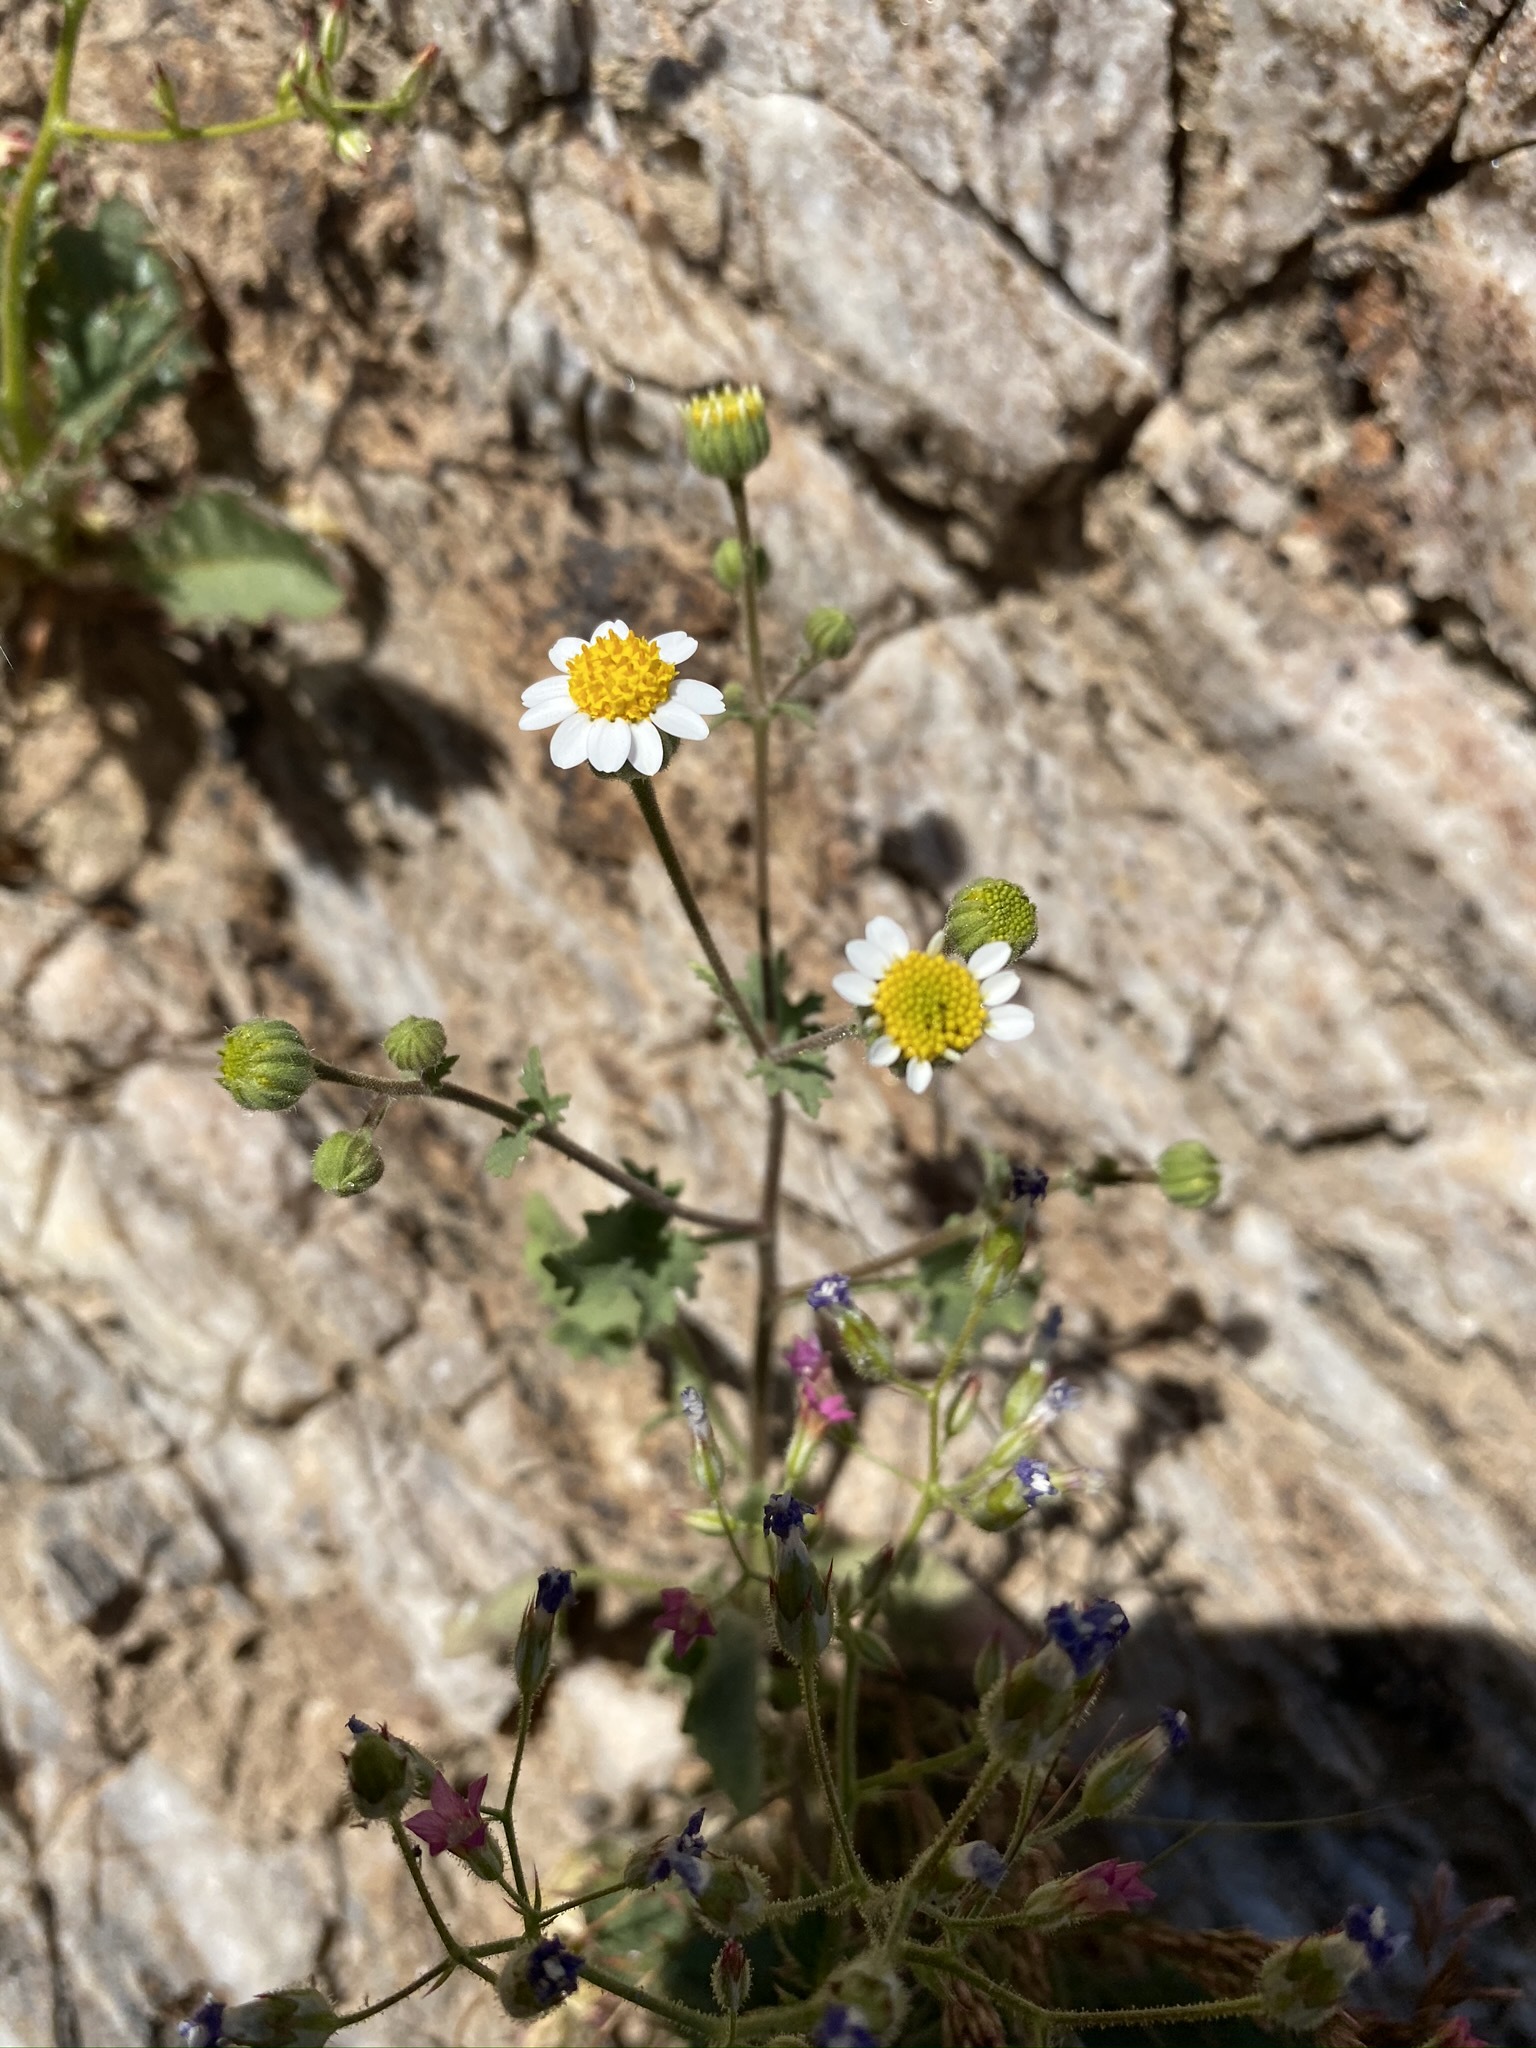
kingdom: Plantae
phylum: Tracheophyta
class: Magnoliopsida
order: Asterales
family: Asteraceae
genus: Laphamia
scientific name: Laphamia emoryi
